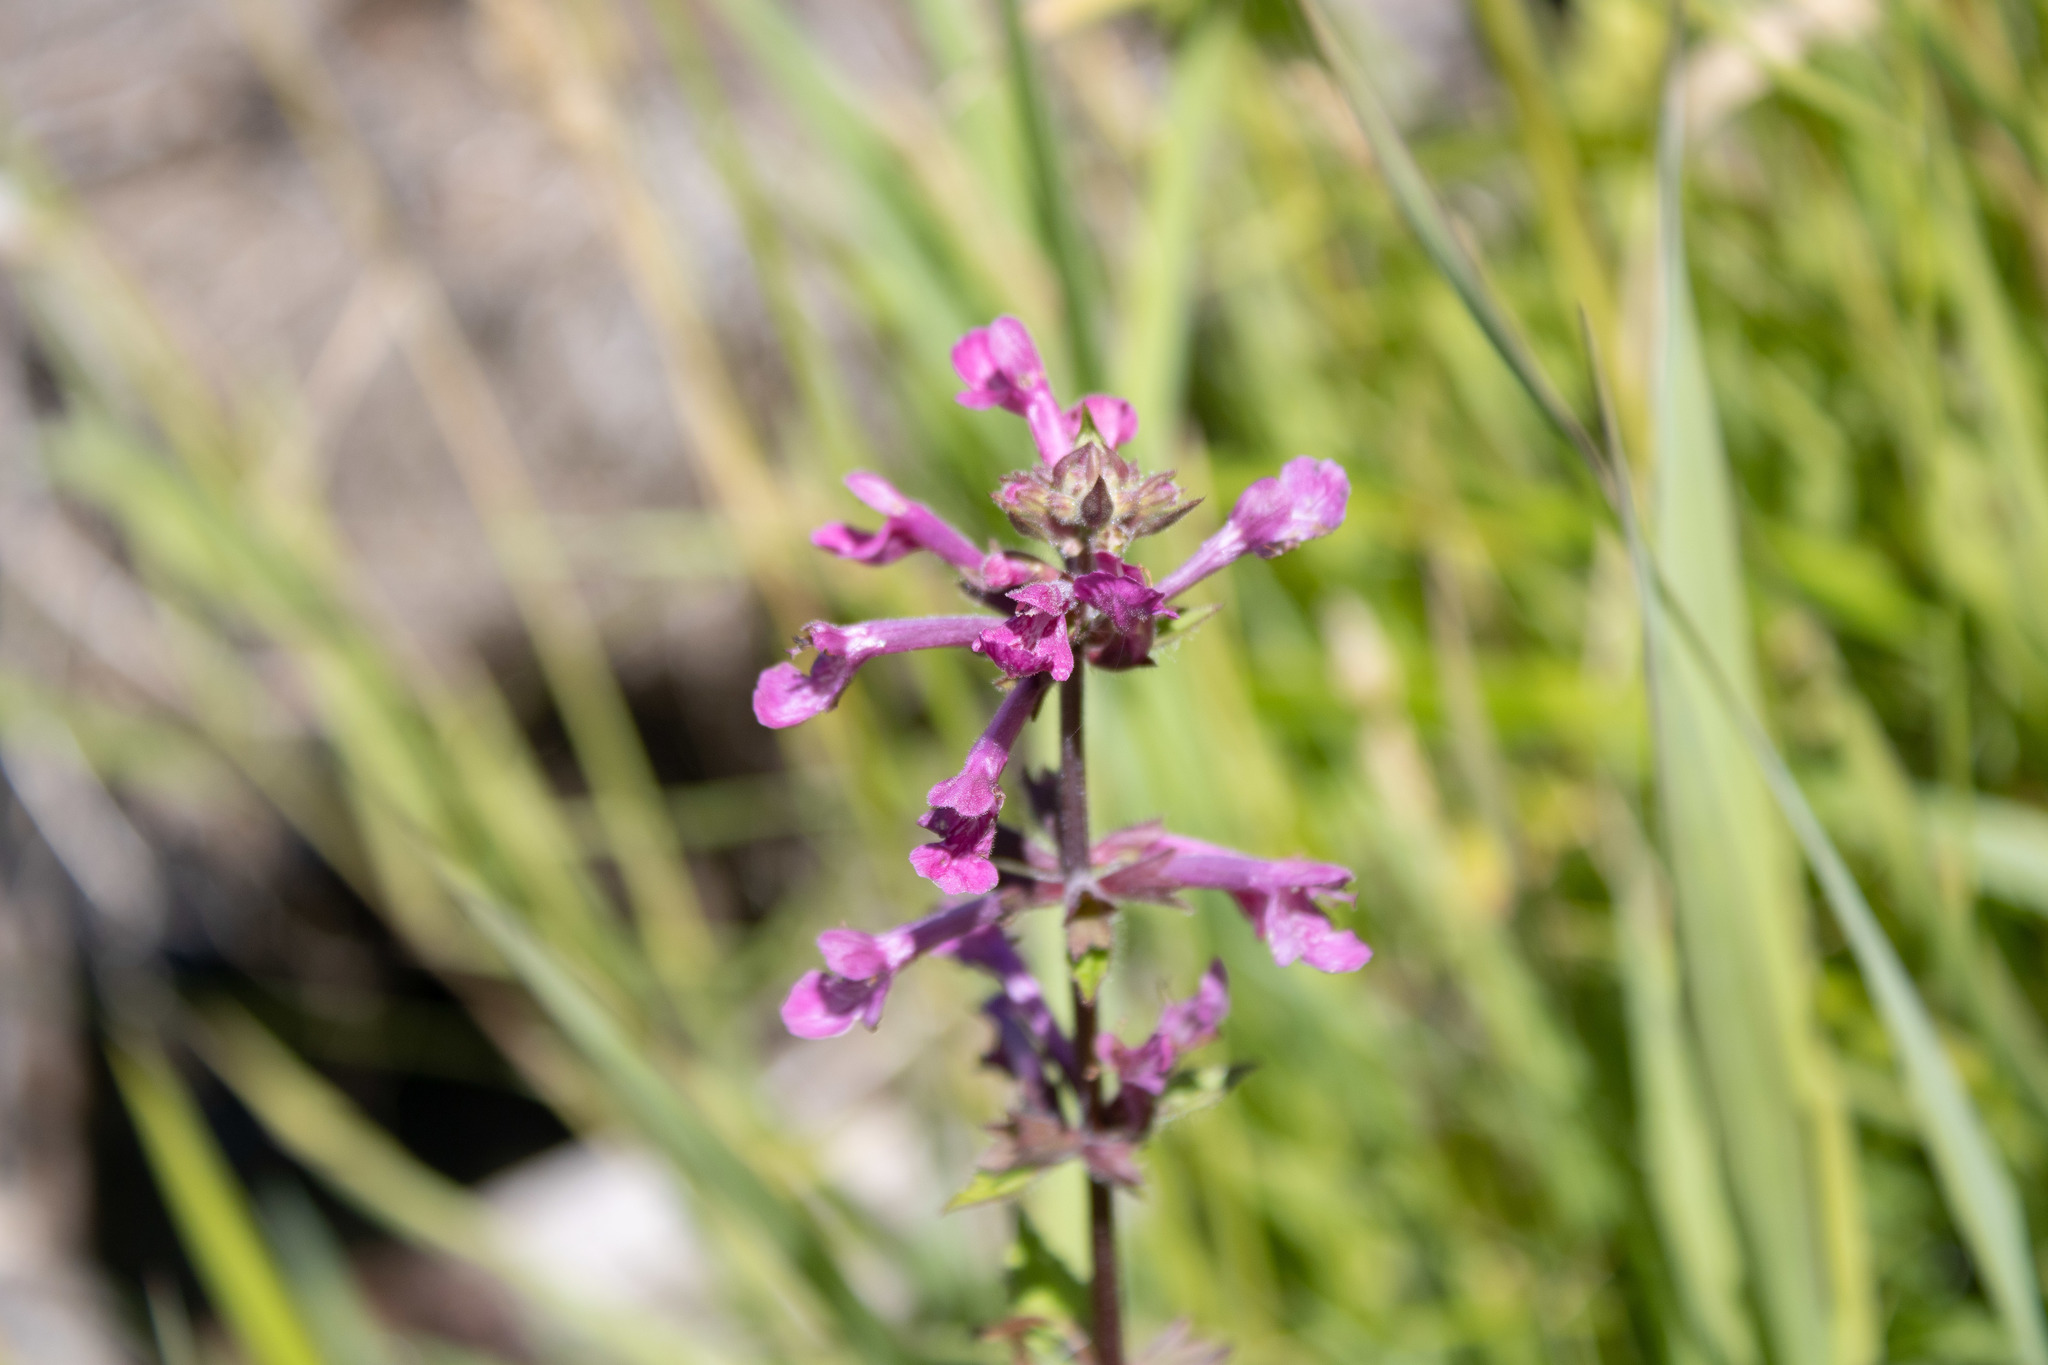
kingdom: Plantae
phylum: Tracheophyta
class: Magnoliopsida
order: Lamiales
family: Lamiaceae
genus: Stachys
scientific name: Stachys chamissonis
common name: Coastal hedge-nettle
